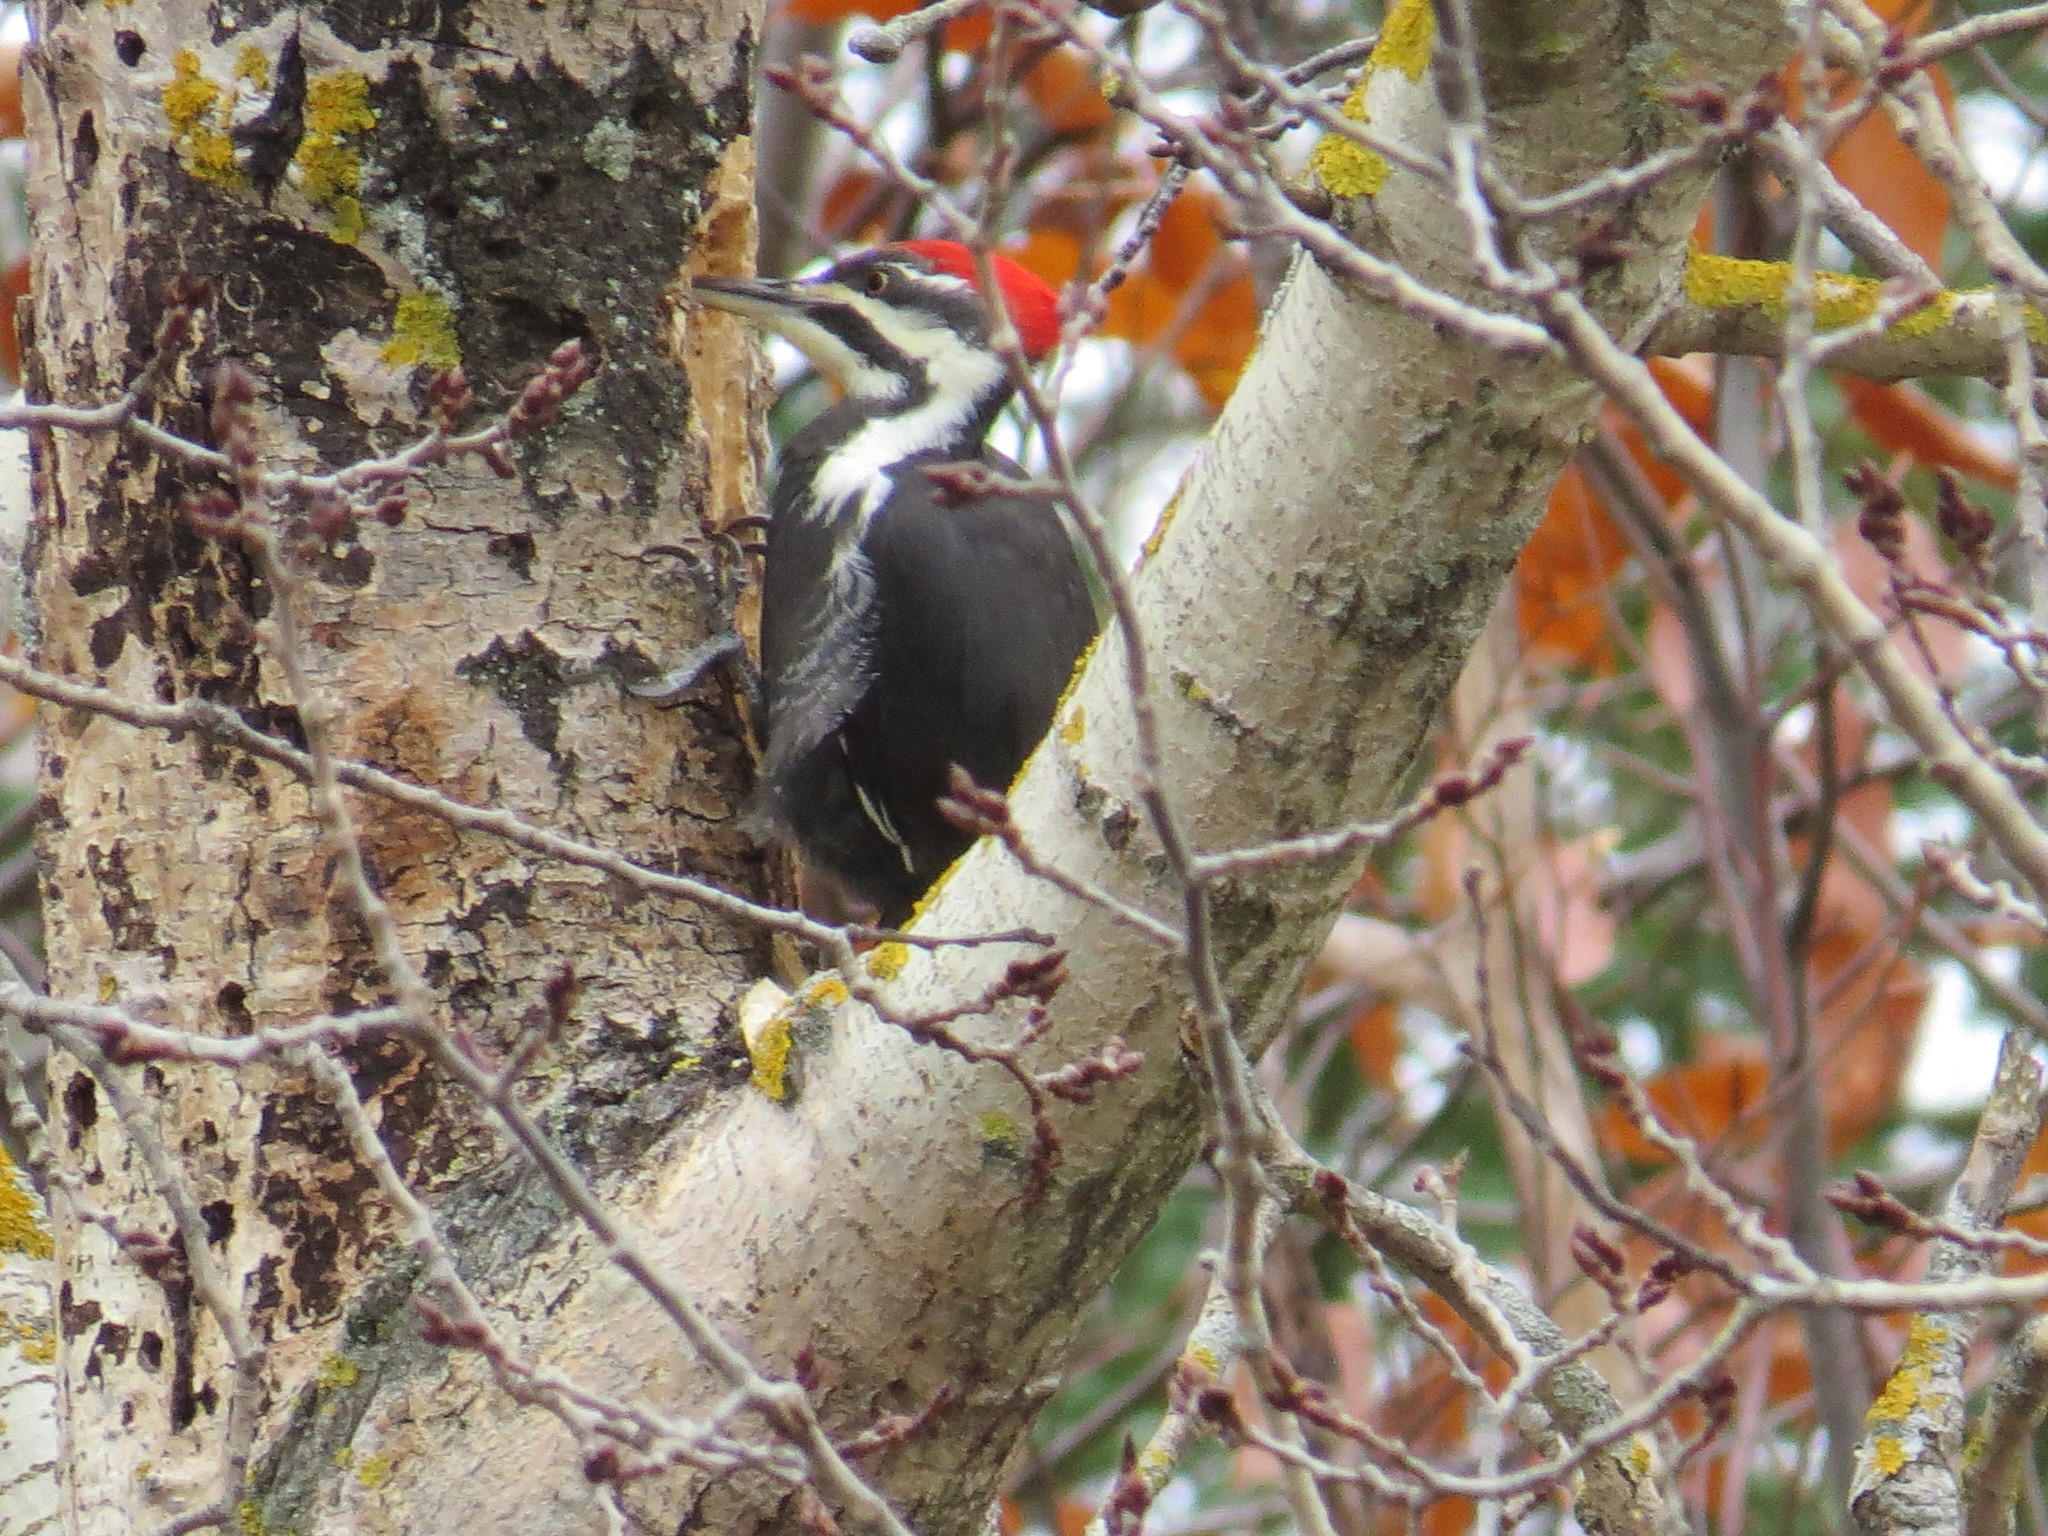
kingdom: Animalia
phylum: Chordata
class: Aves
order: Piciformes
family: Picidae
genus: Dryocopus
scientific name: Dryocopus pileatus
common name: Pileated woodpecker
